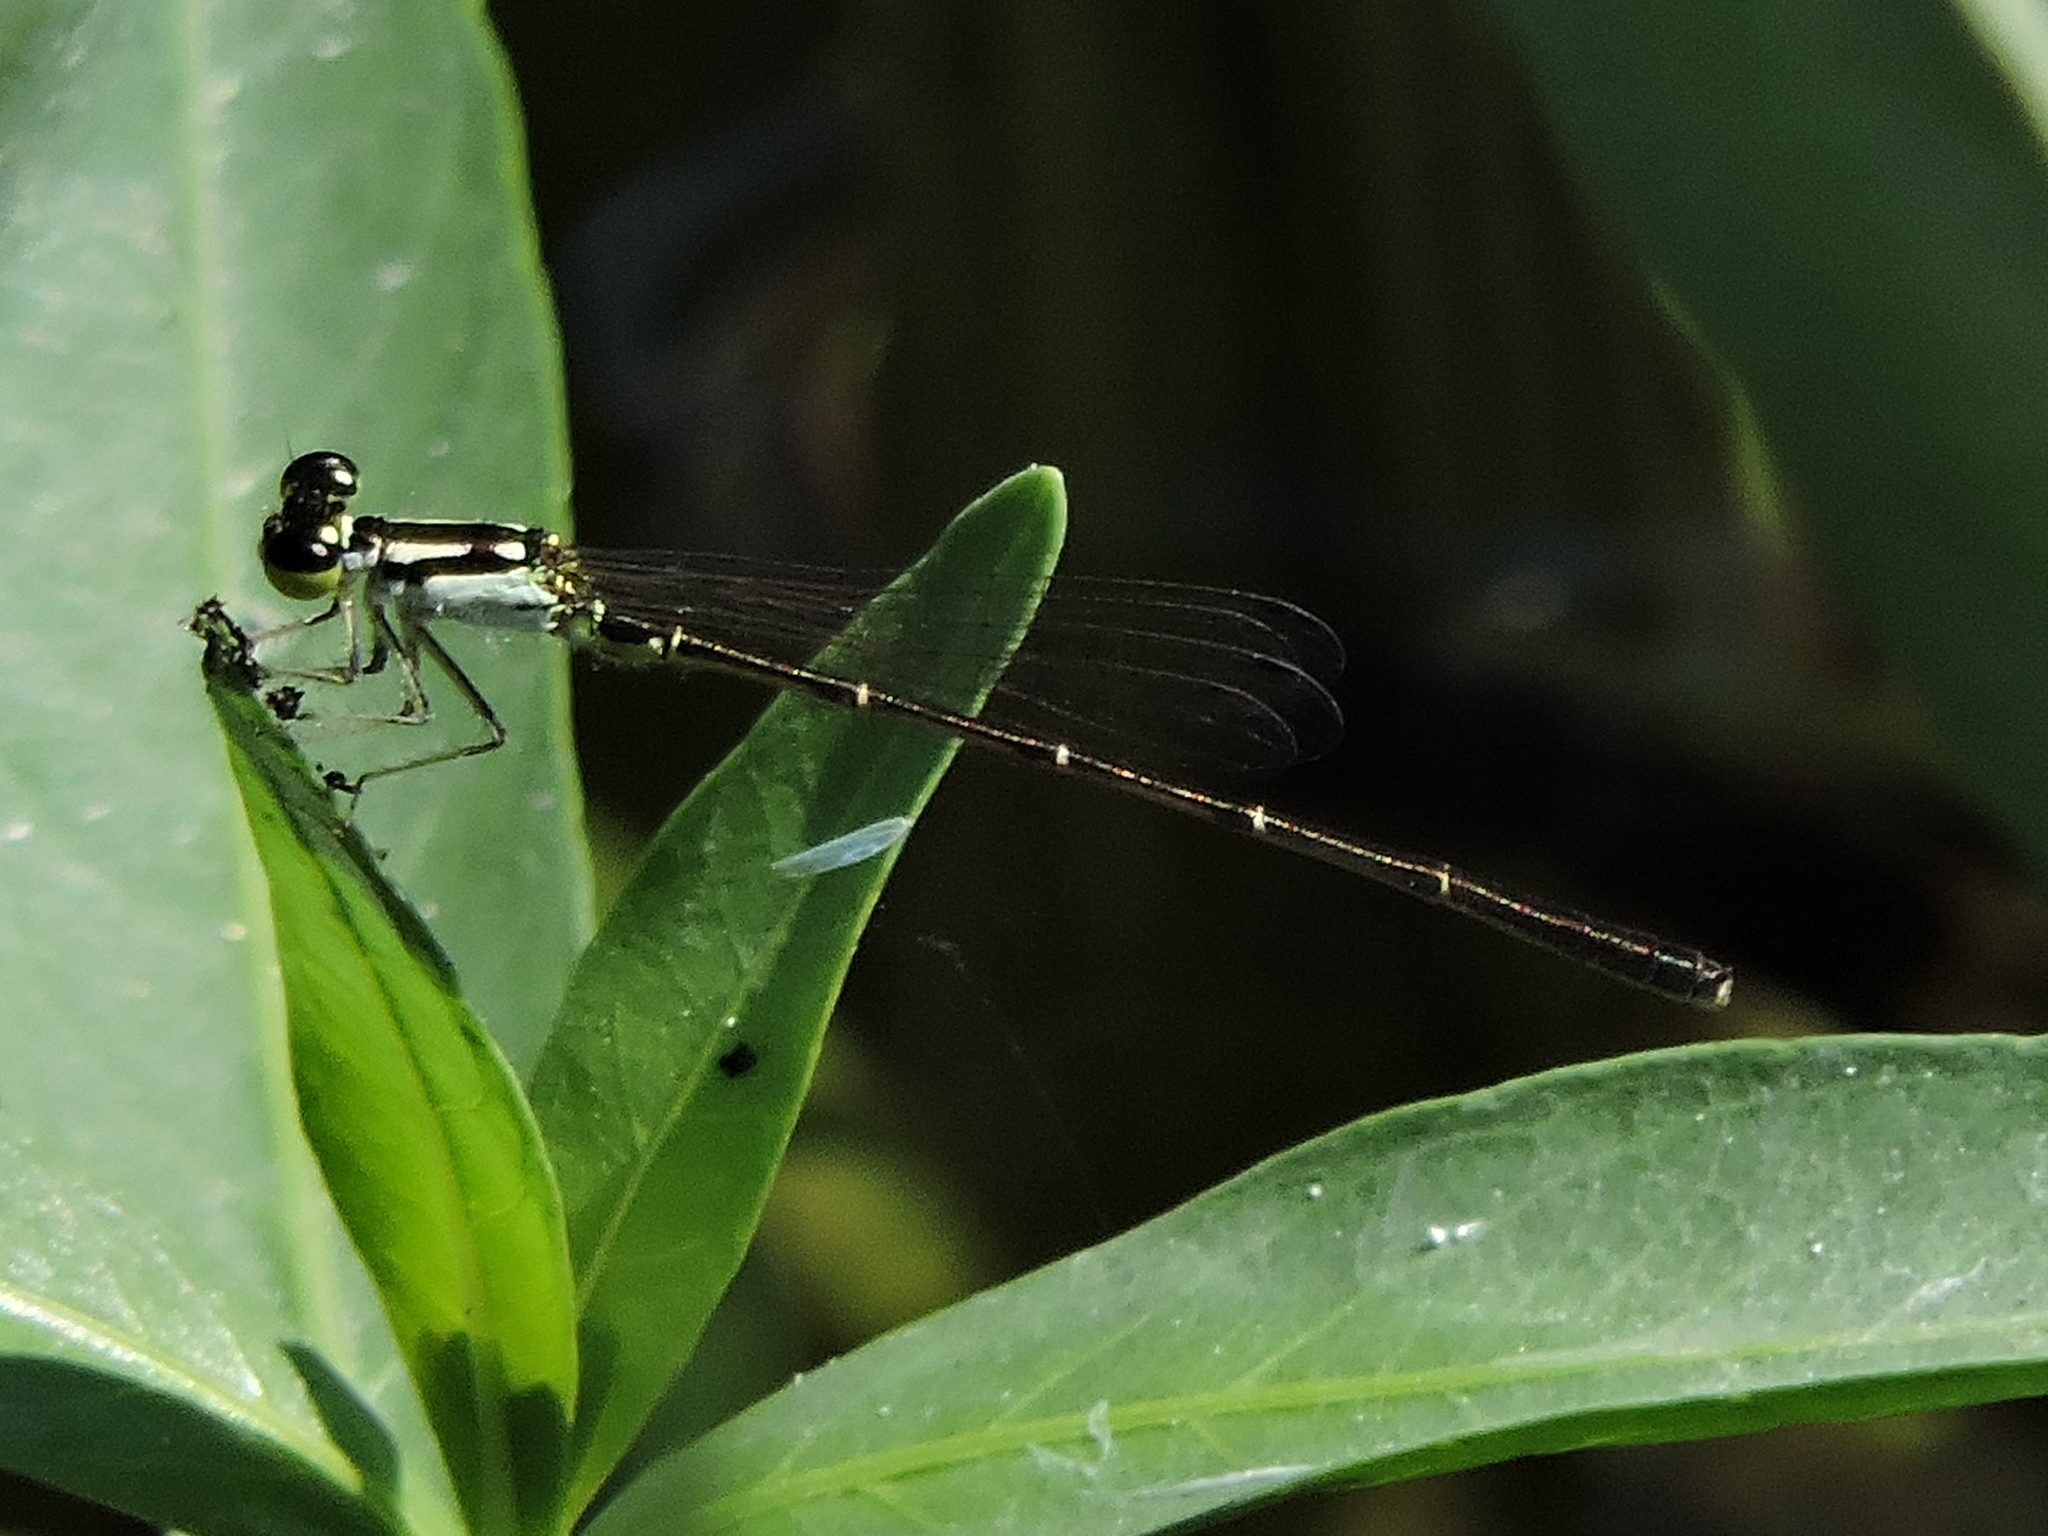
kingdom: Animalia
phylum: Arthropoda
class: Insecta
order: Odonata
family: Coenagrionidae
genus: Ischnura
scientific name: Ischnura posita
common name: Fragile forktail
